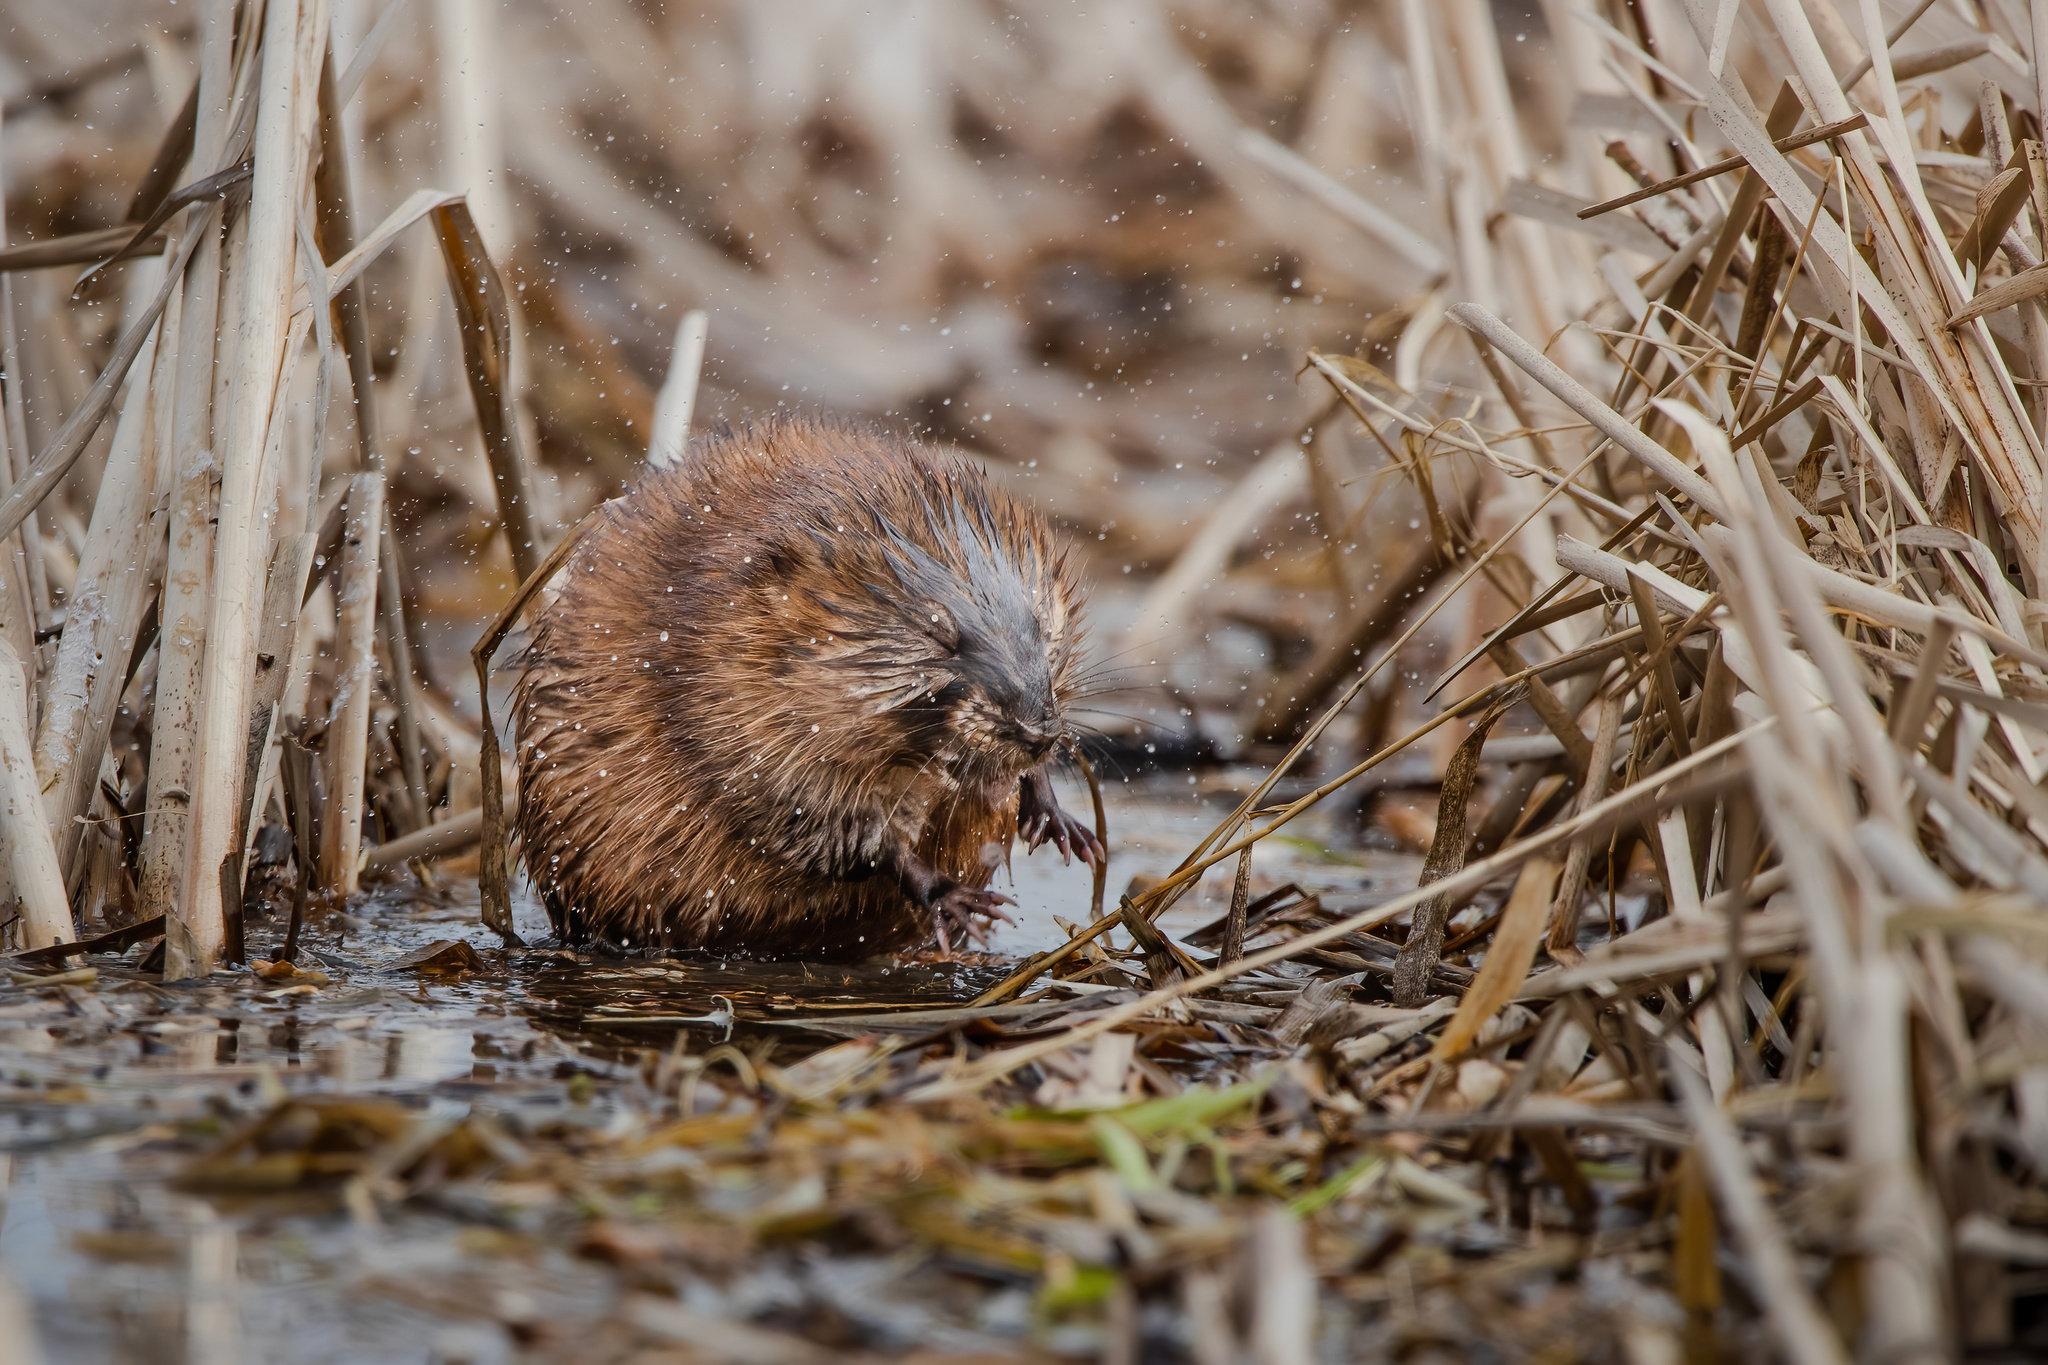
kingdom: Animalia
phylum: Chordata
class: Mammalia
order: Rodentia
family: Cricetidae
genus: Ondatra
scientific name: Ondatra zibethicus
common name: Muskrat
